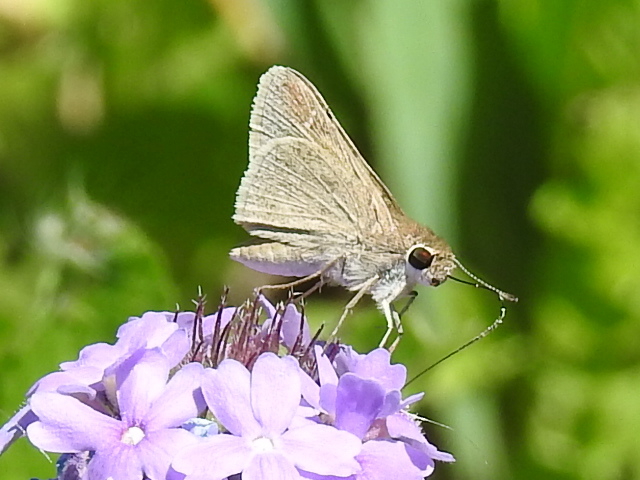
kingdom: Animalia
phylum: Arthropoda
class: Insecta
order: Lepidoptera
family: Hesperiidae
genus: Lerodea
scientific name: Lerodea eufala
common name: Eufala skipper
